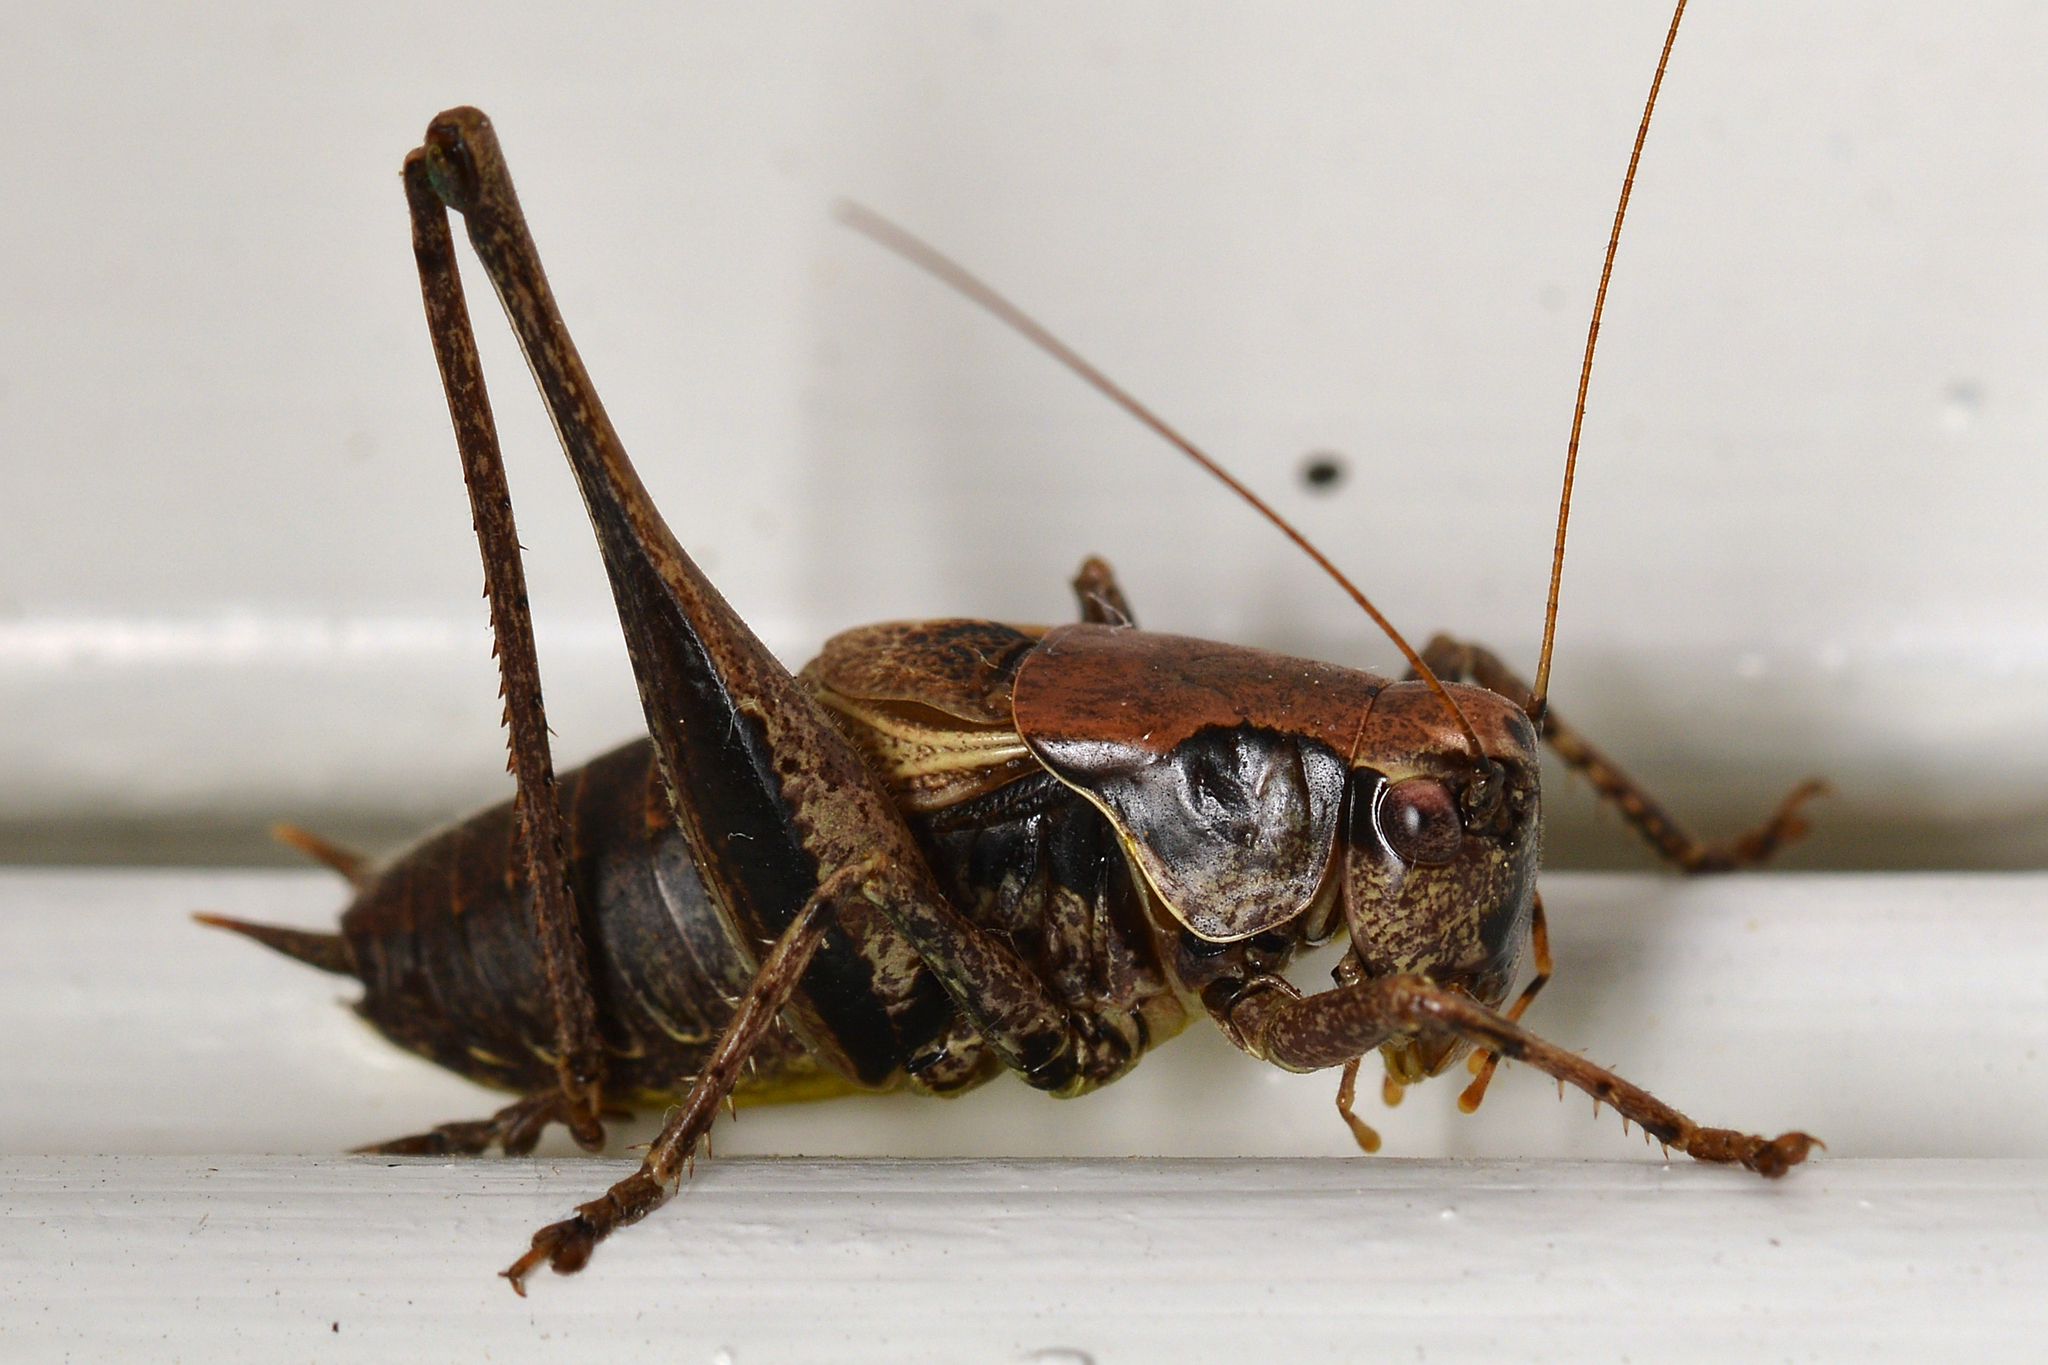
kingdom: Animalia
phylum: Arthropoda
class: Insecta
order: Orthoptera
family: Tettigoniidae
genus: Pholidoptera
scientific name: Pholidoptera griseoaptera
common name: Dark bush-cricket
